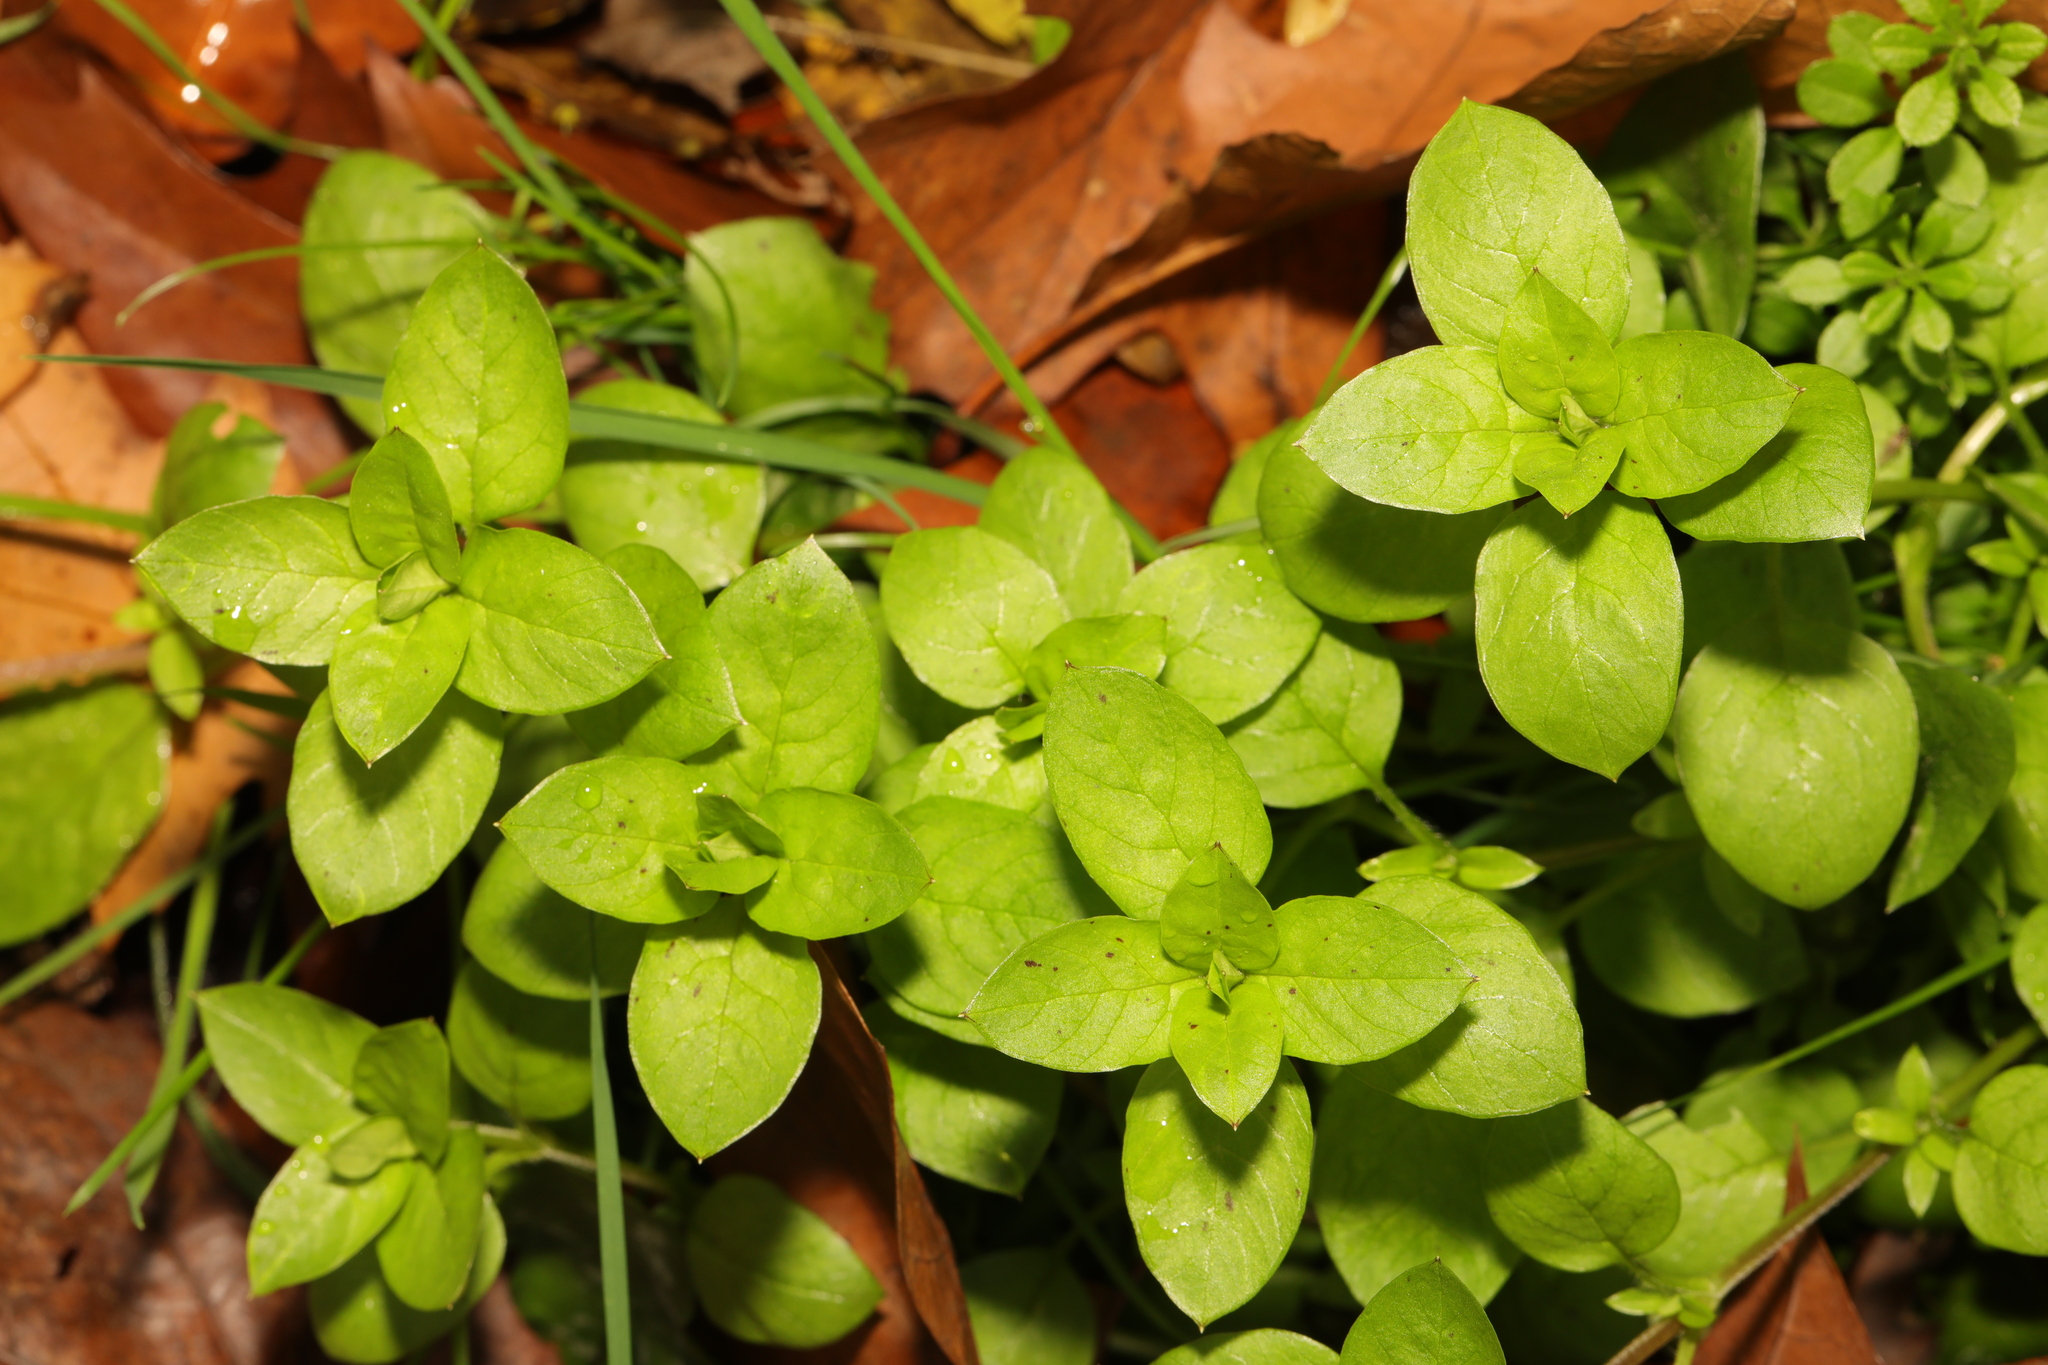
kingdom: Plantae
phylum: Tracheophyta
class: Magnoliopsida
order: Caryophyllales
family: Caryophyllaceae
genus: Stellaria
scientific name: Stellaria media
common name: Common chickweed
